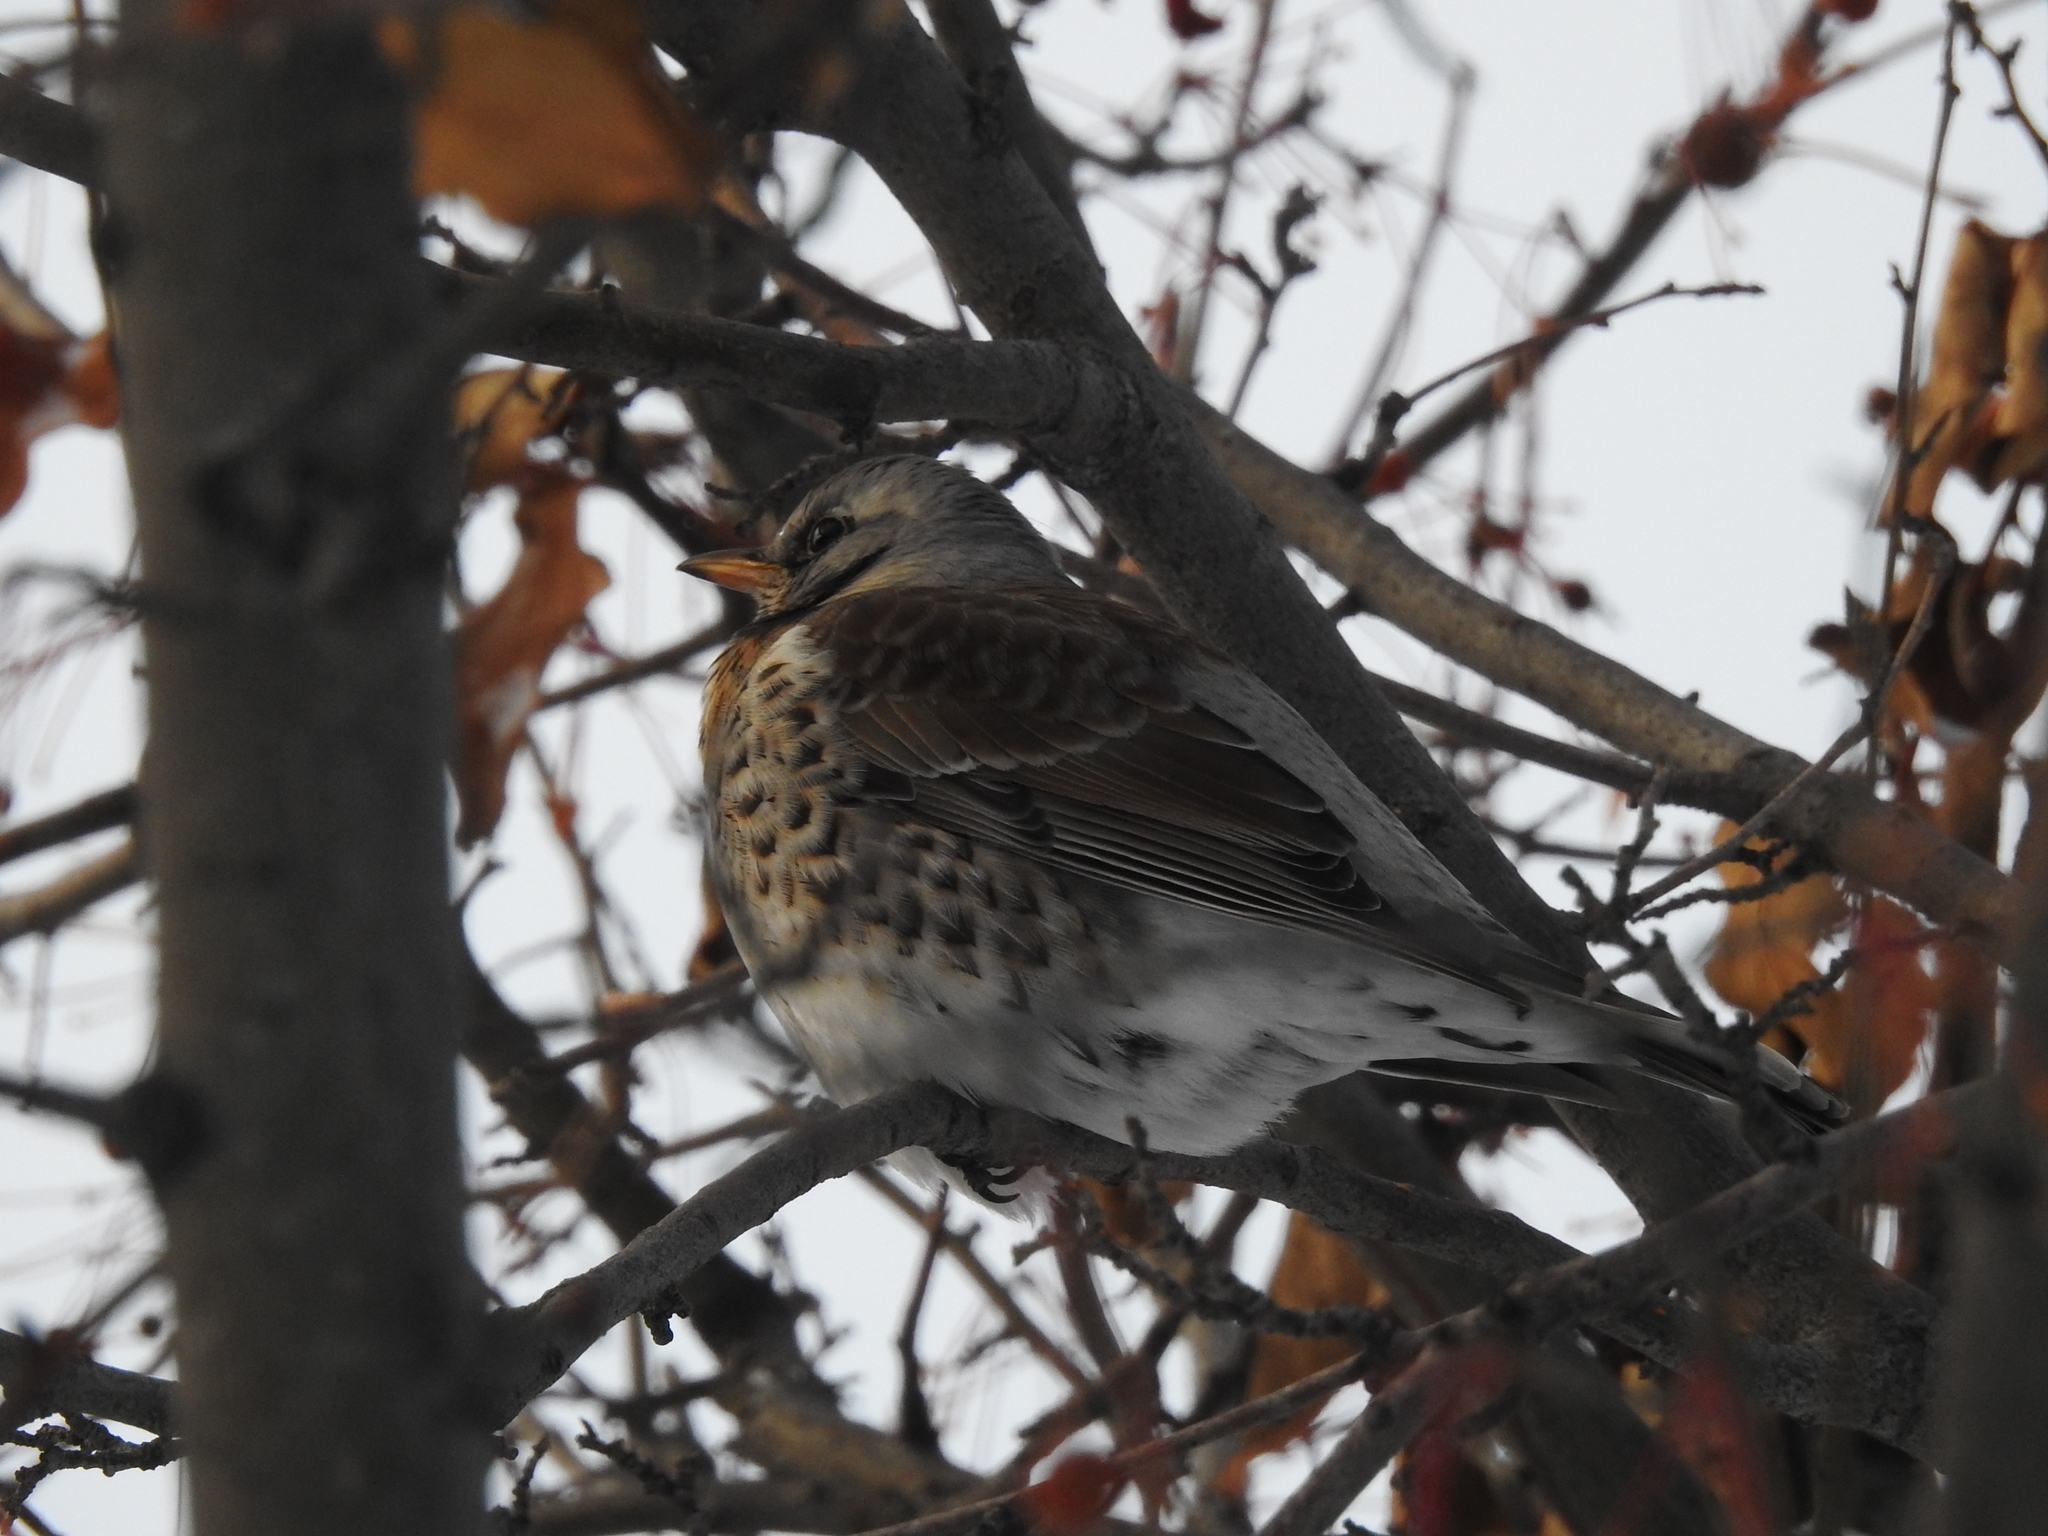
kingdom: Animalia
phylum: Chordata
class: Aves
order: Passeriformes
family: Turdidae
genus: Turdus
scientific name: Turdus pilaris
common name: Fieldfare
